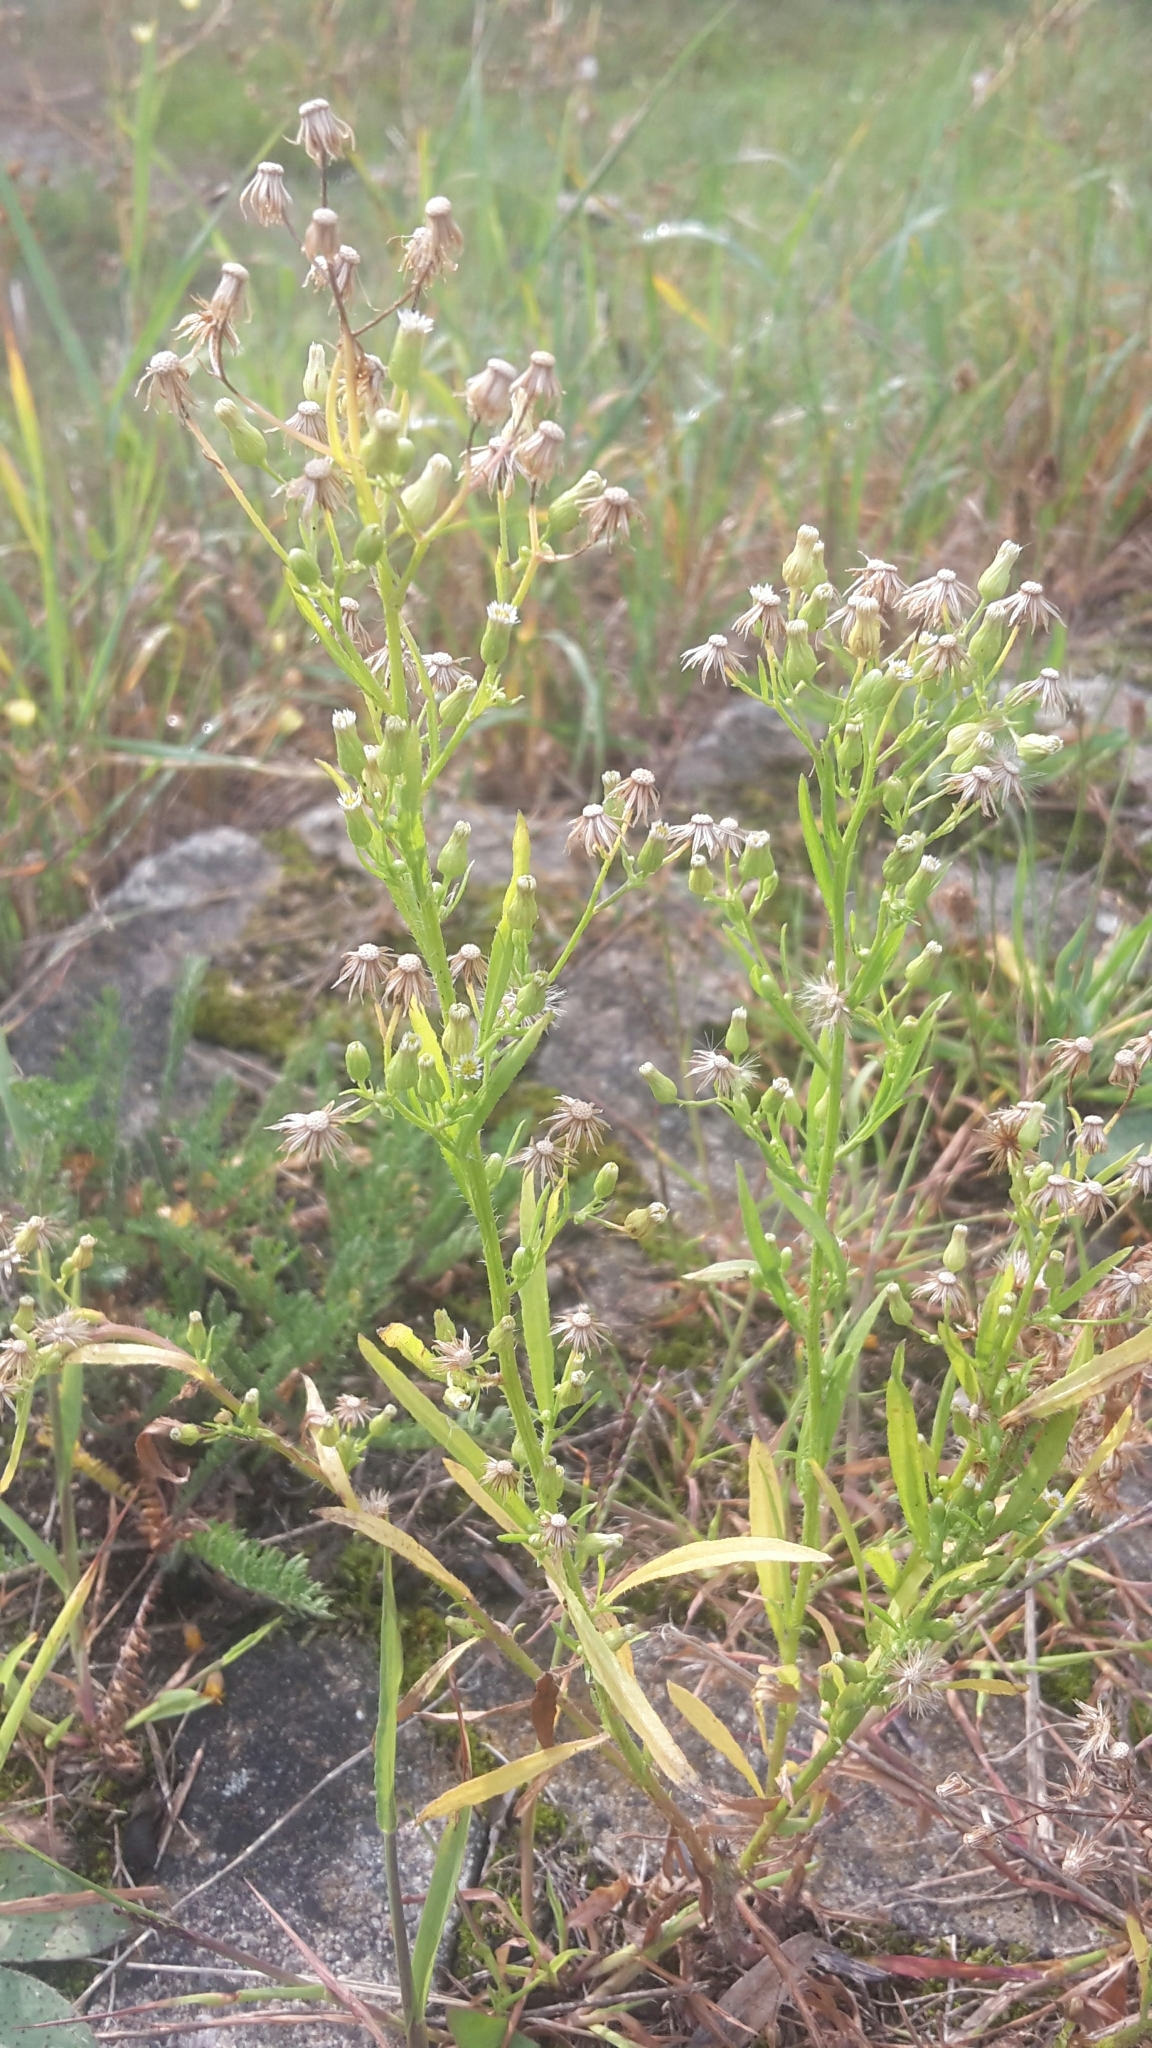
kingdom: Plantae
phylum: Tracheophyta
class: Magnoliopsida
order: Asterales
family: Asteraceae
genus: Erigeron
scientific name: Erigeron canadensis
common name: Canadian fleabane
